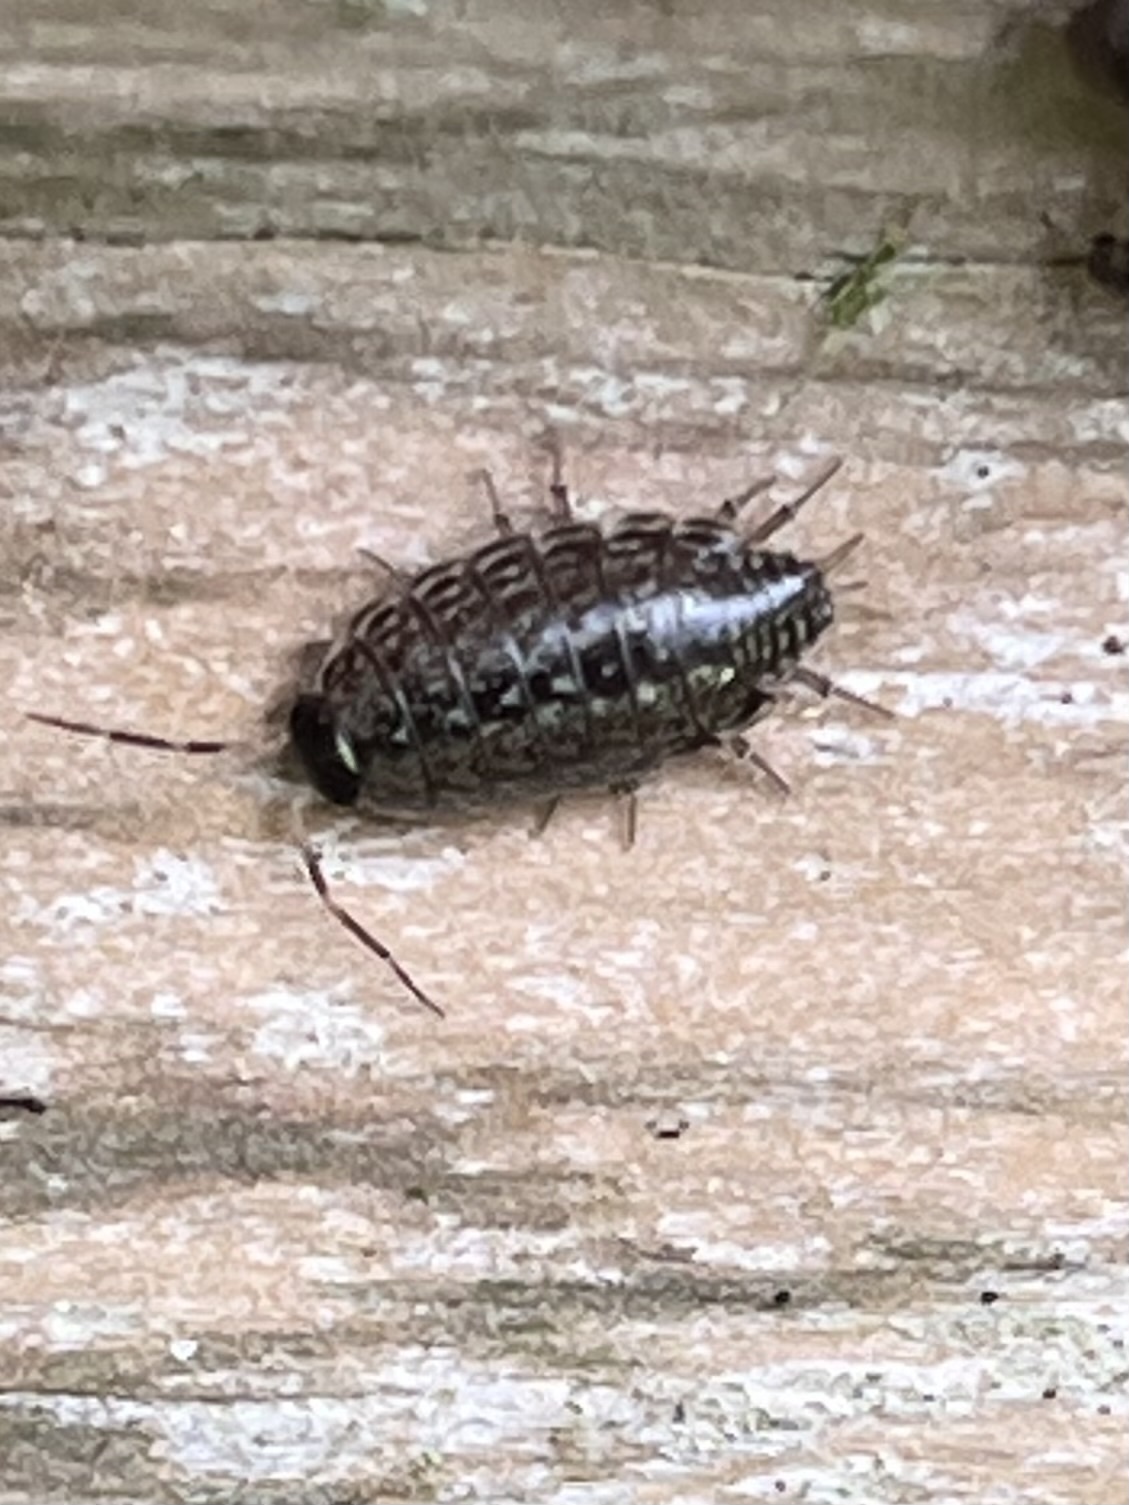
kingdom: Animalia
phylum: Arthropoda
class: Malacostraca
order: Isopoda
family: Philosciidae
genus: Philoscia
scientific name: Philoscia muscorum
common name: Common striped woodlouse
